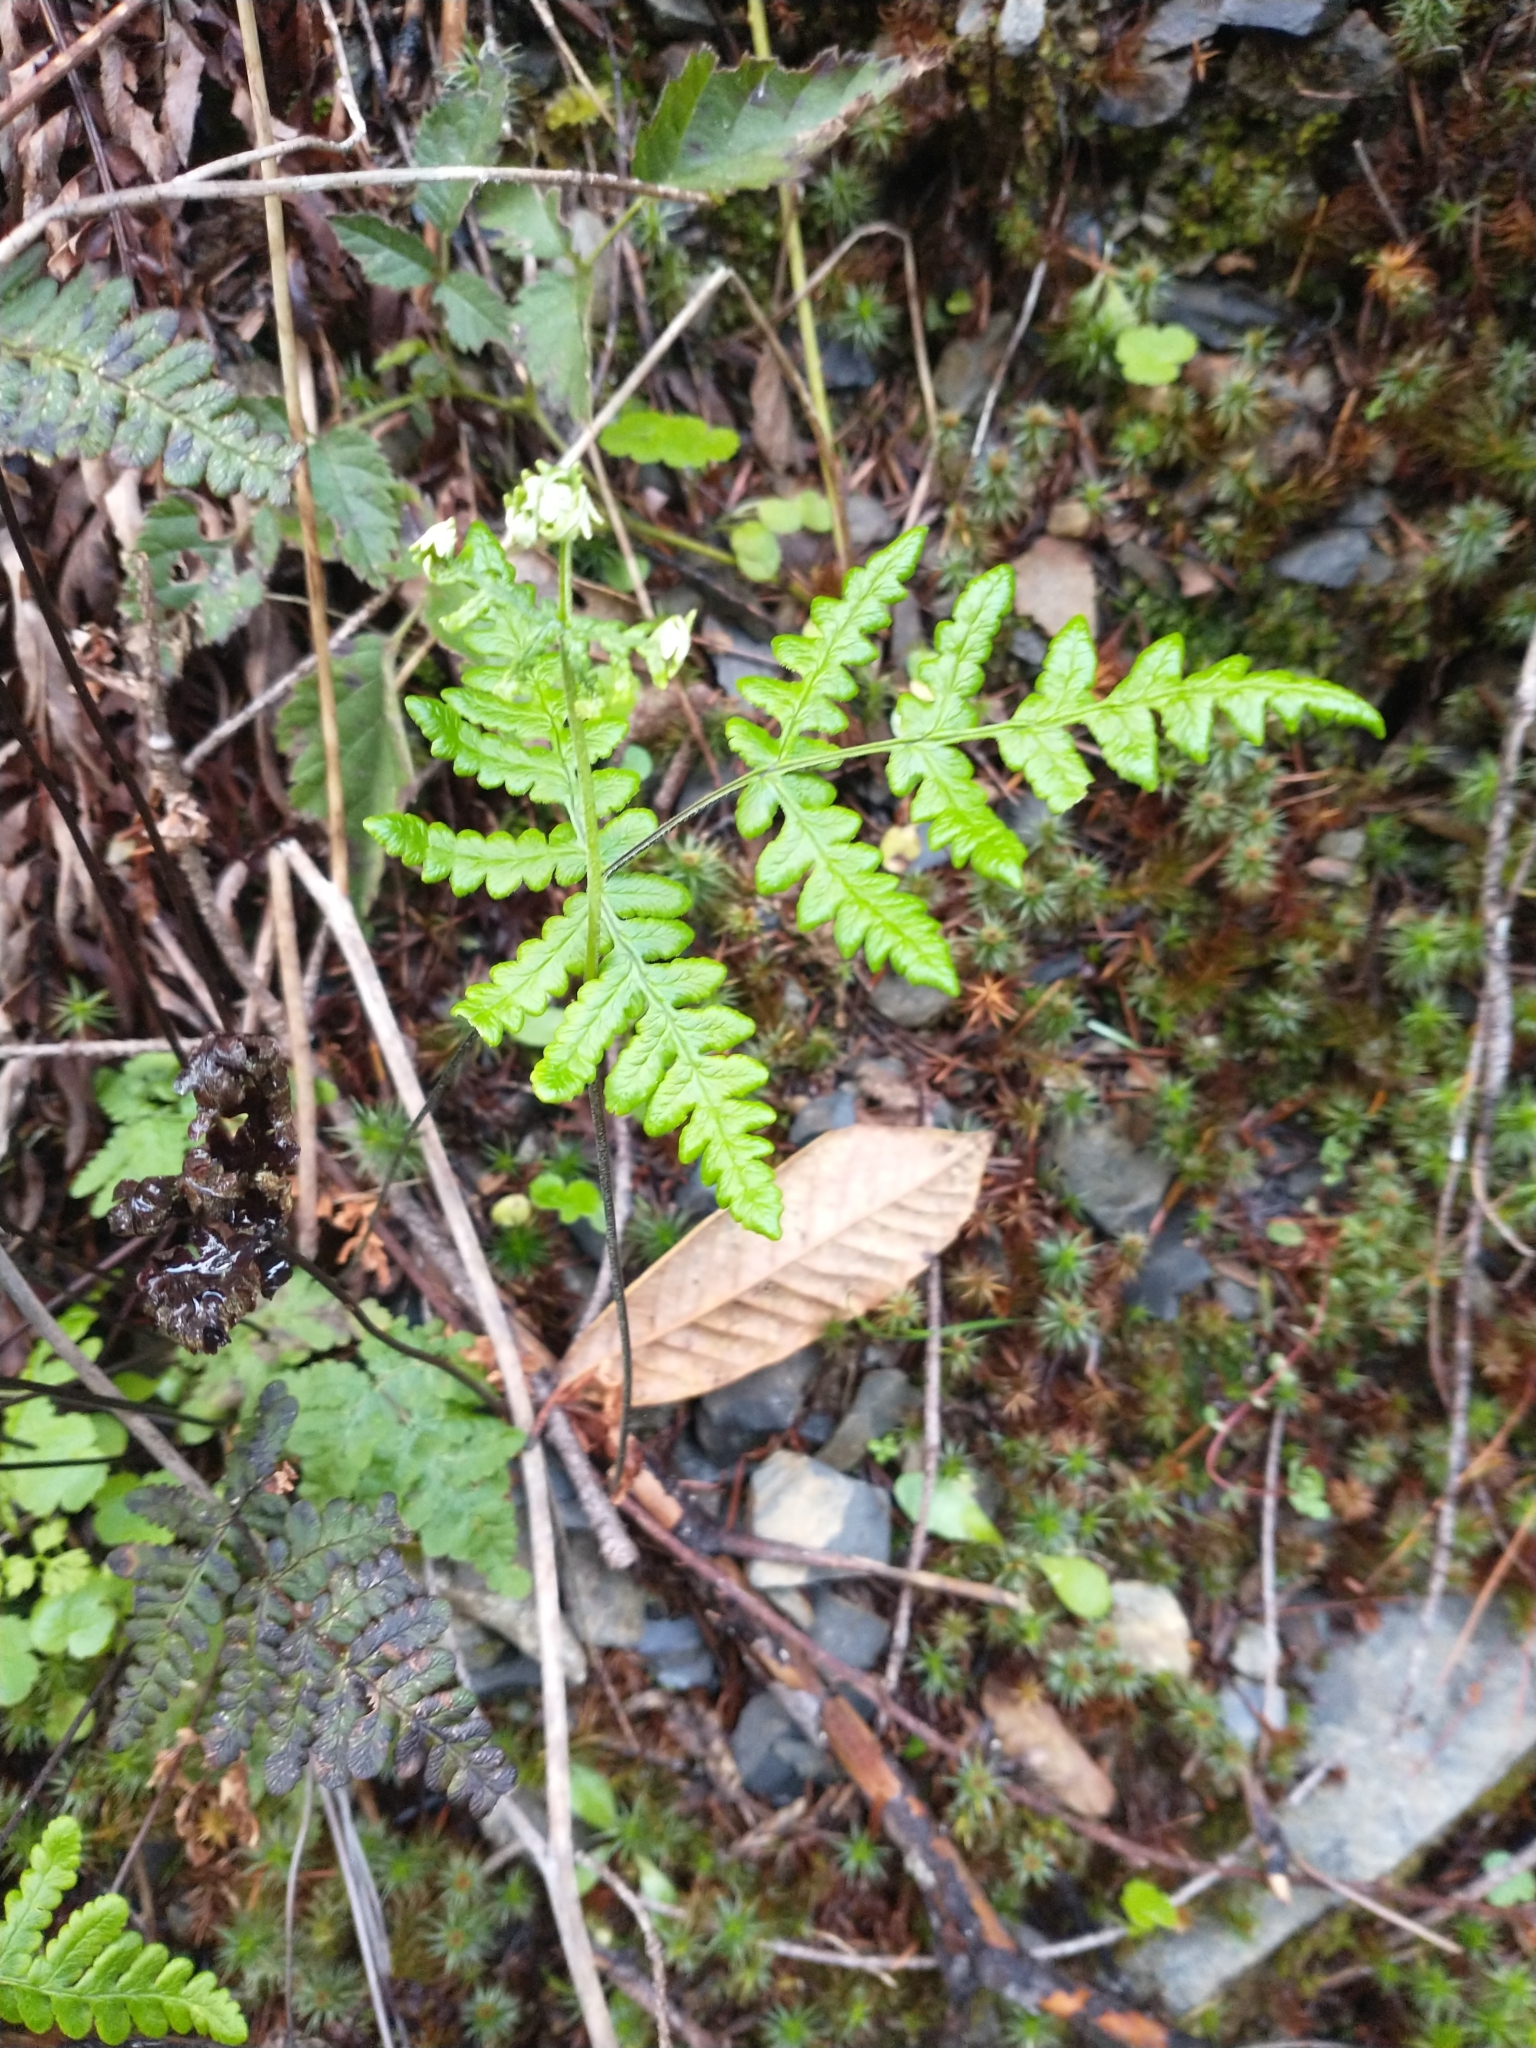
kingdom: Plantae
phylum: Tracheophyta
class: Polypodiopsida
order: Polypodiales
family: Pteridaceae
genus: Pentagramma
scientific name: Pentagramma triangularis
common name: Gold fern
